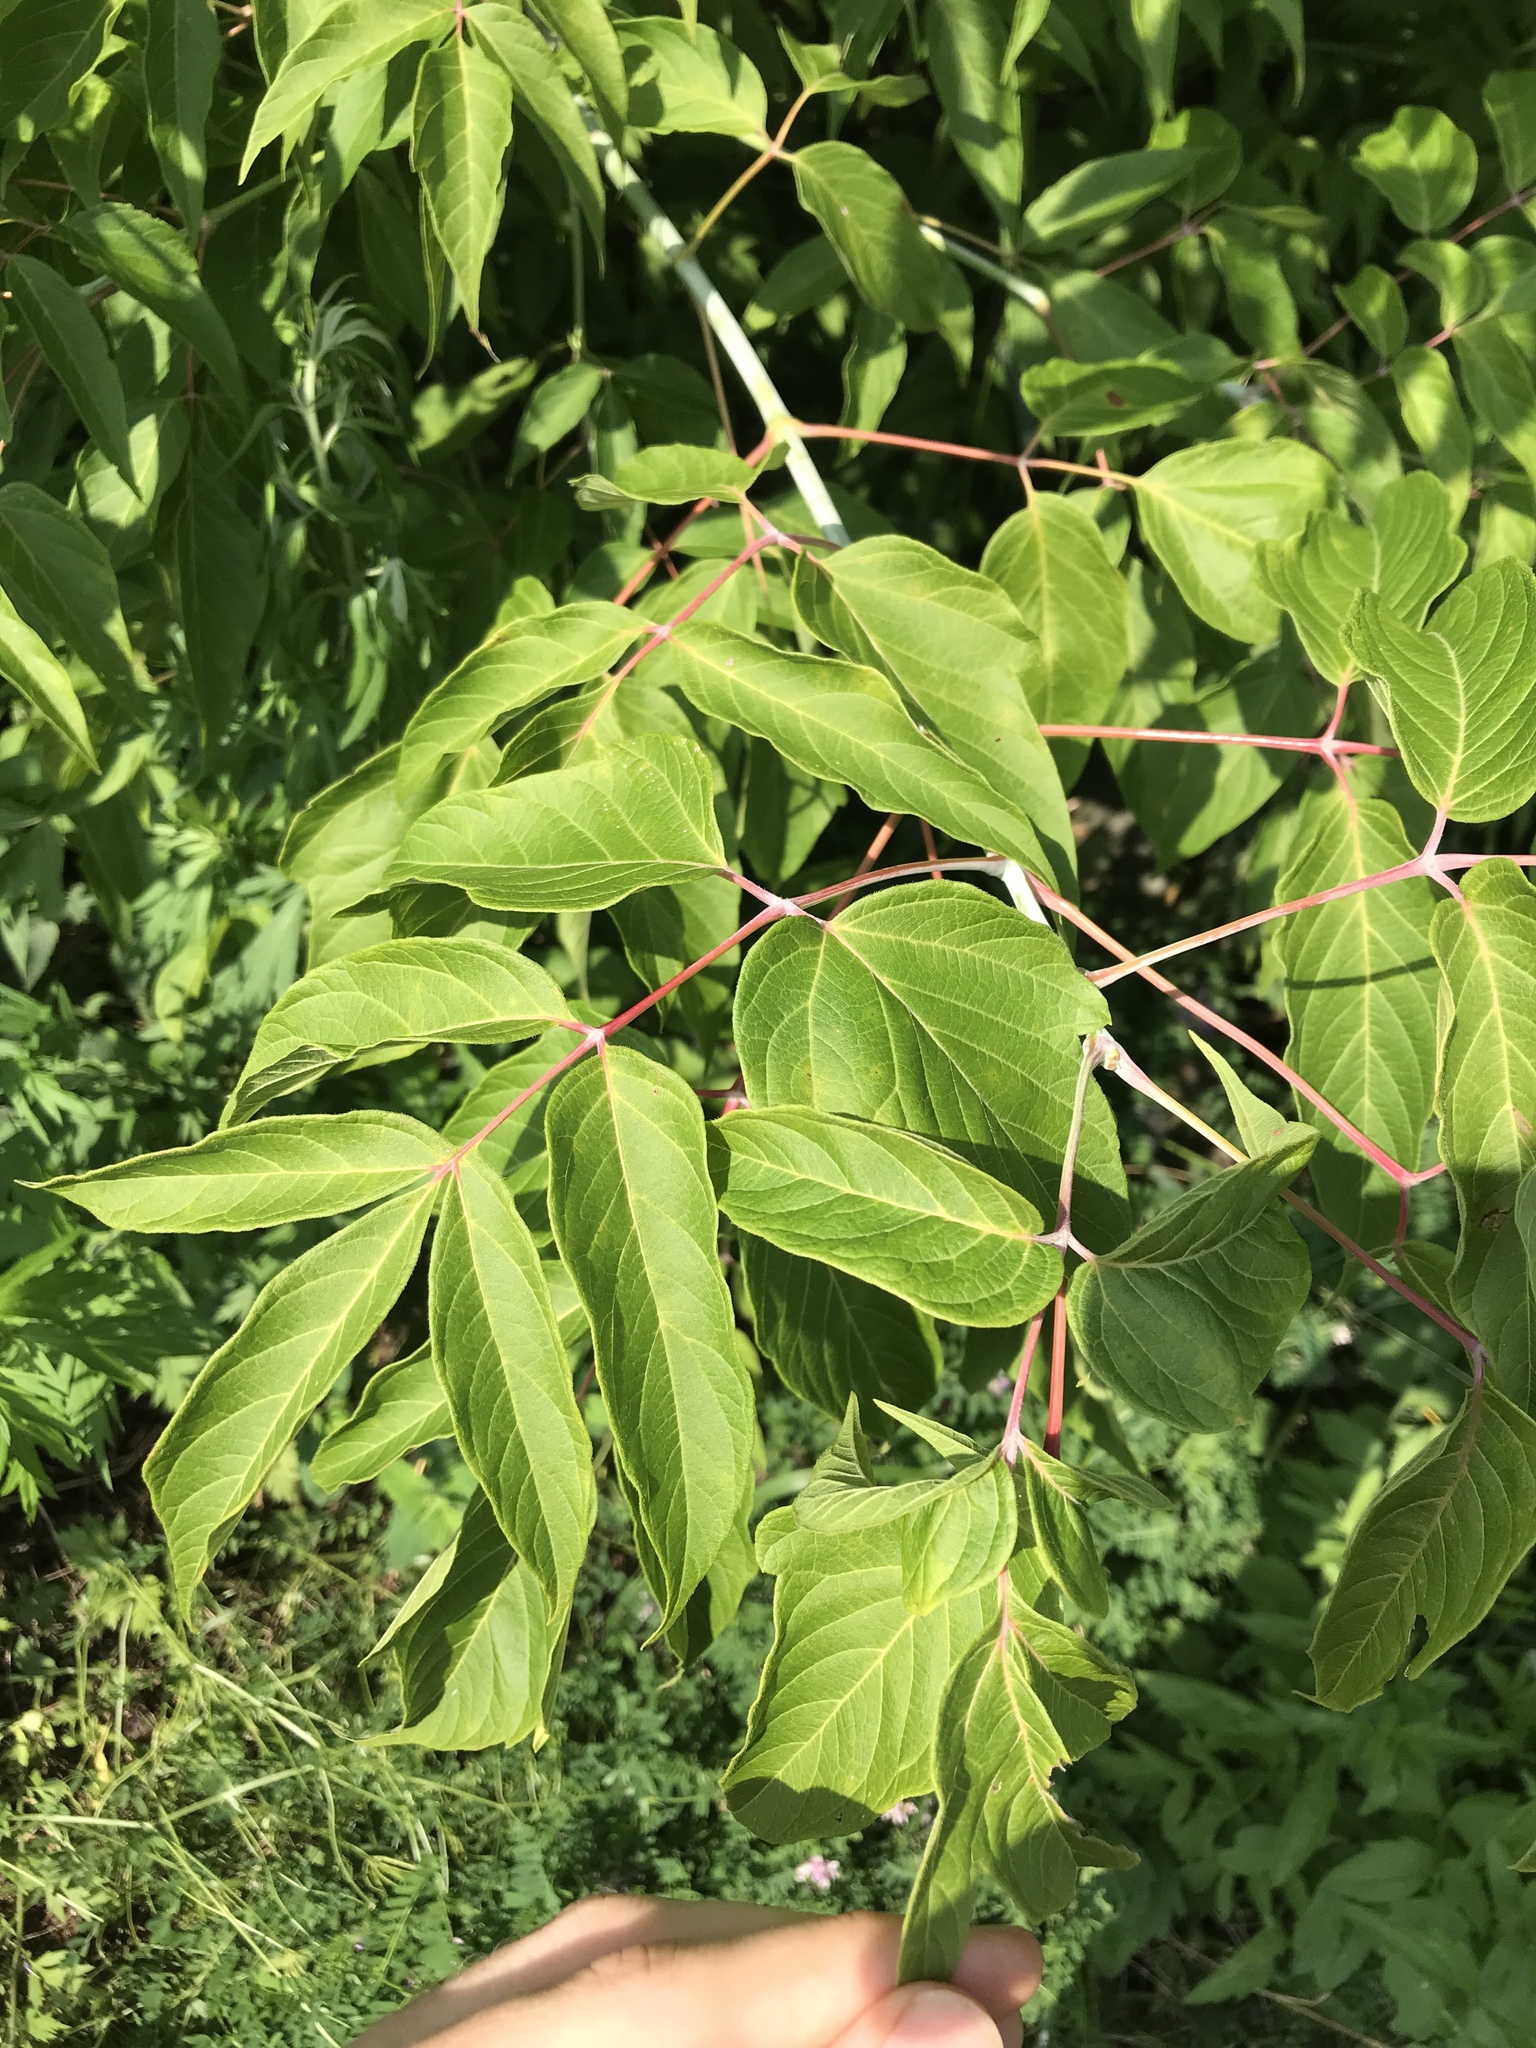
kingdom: Plantae
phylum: Tracheophyta
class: Magnoliopsida
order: Sapindales
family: Sapindaceae
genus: Acer
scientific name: Acer negundo
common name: Ashleaf maple
